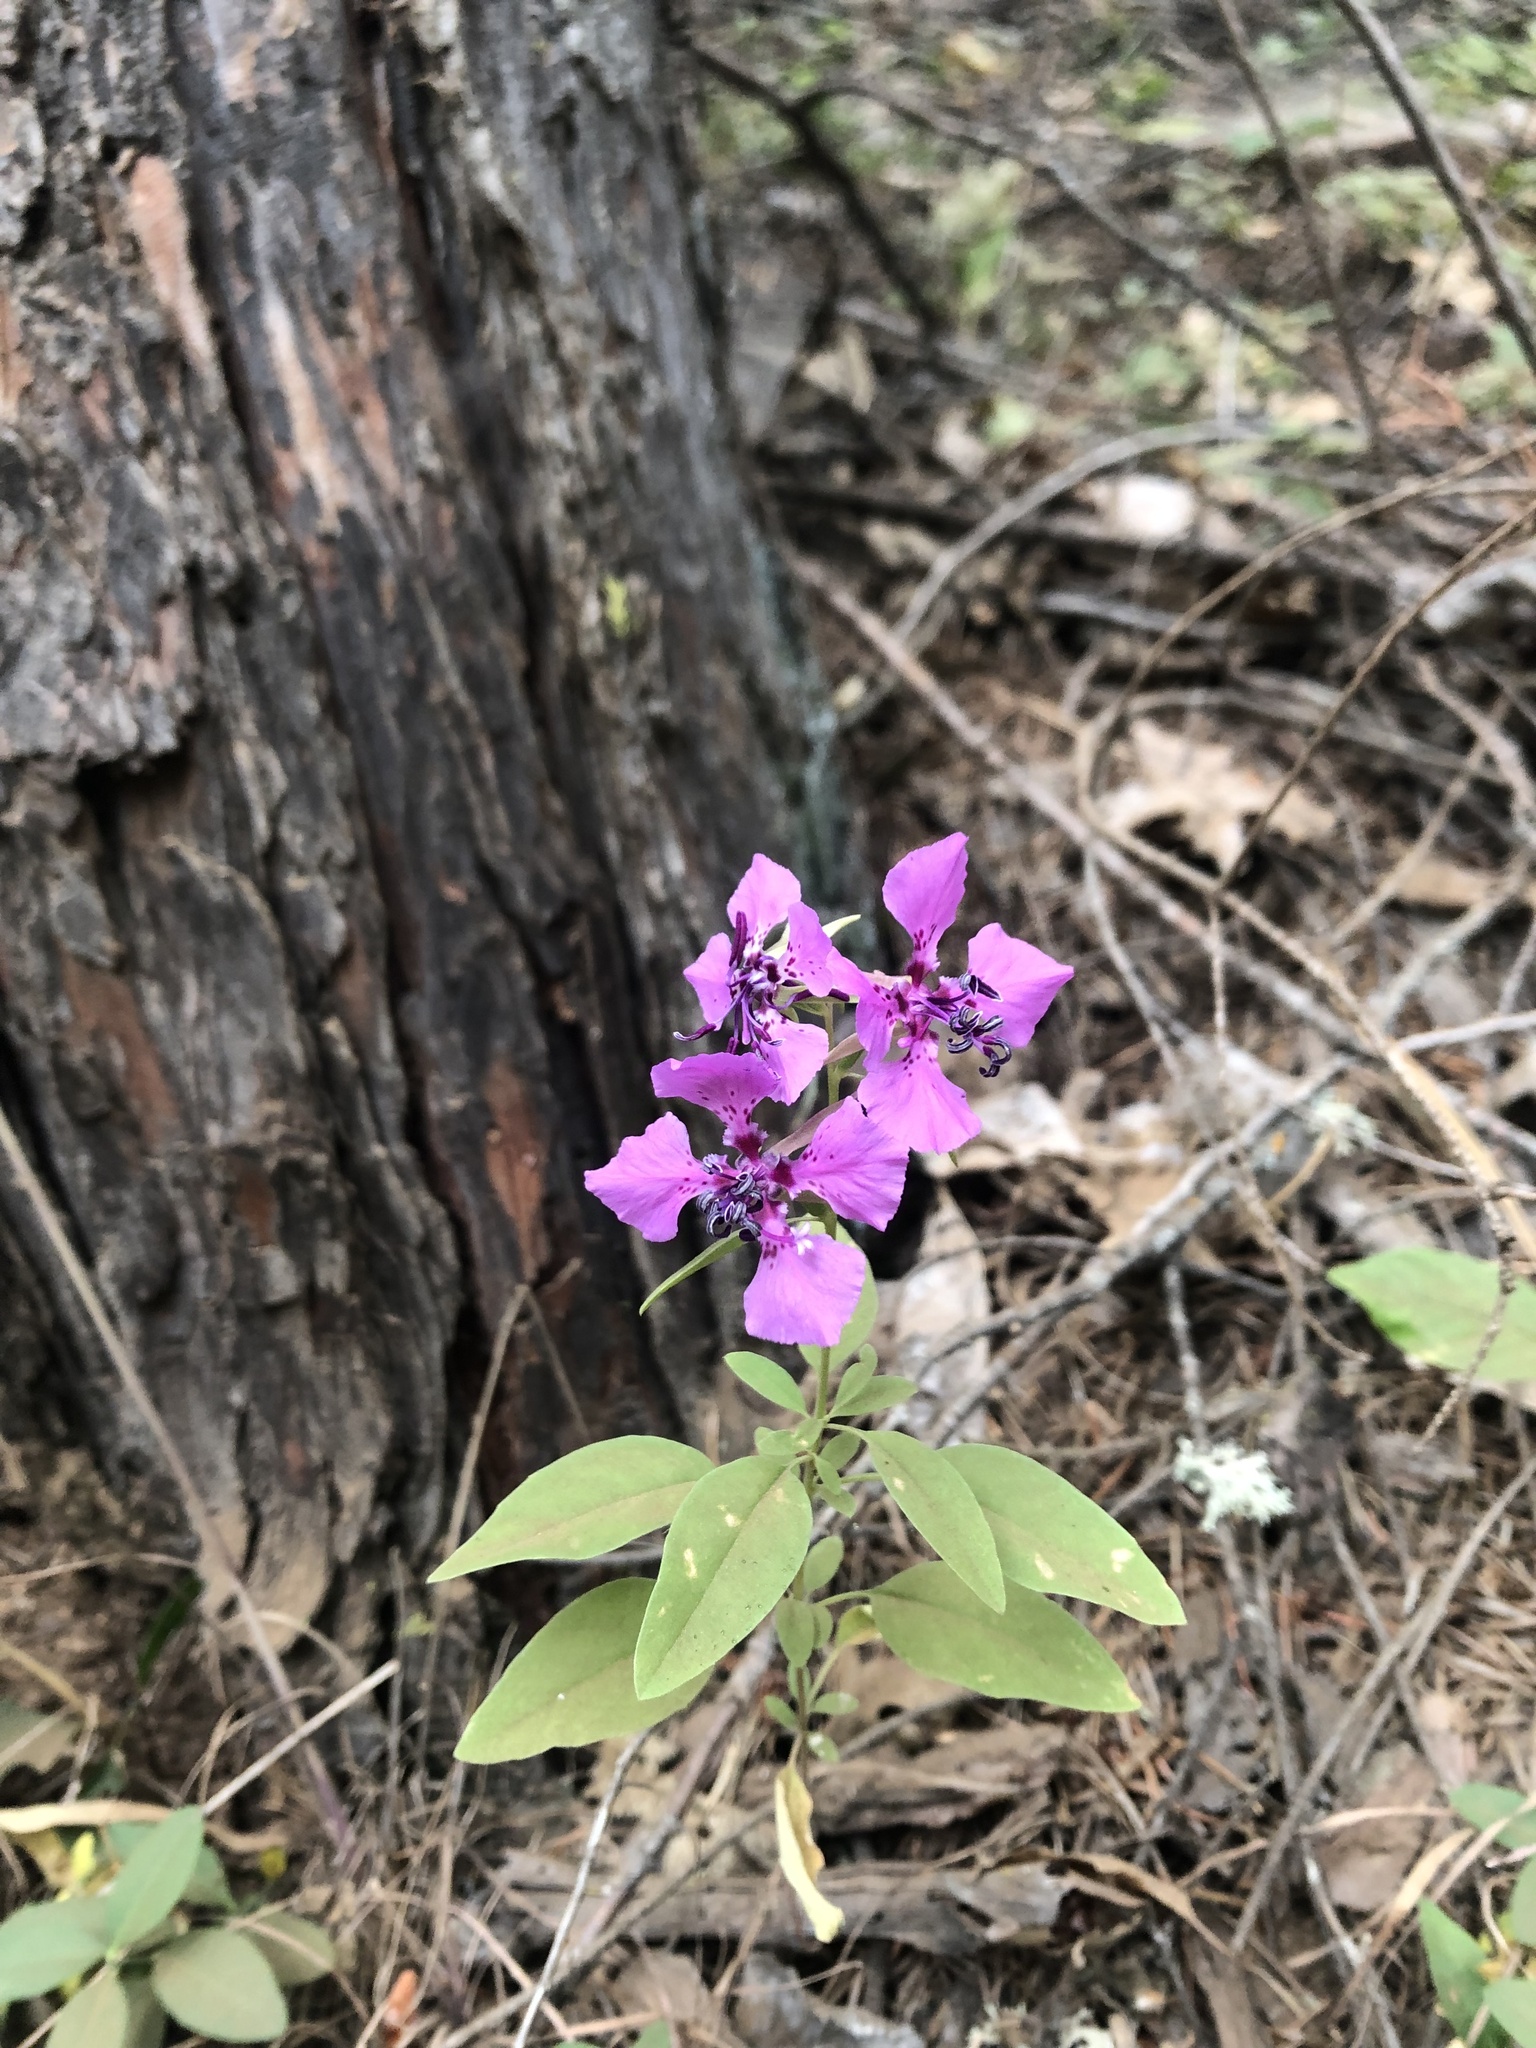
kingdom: Plantae
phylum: Tracheophyta
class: Magnoliopsida
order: Myrtales
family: Onagraceae
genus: Clarkia
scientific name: Clarkia virgata
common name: Sierra clarkia
